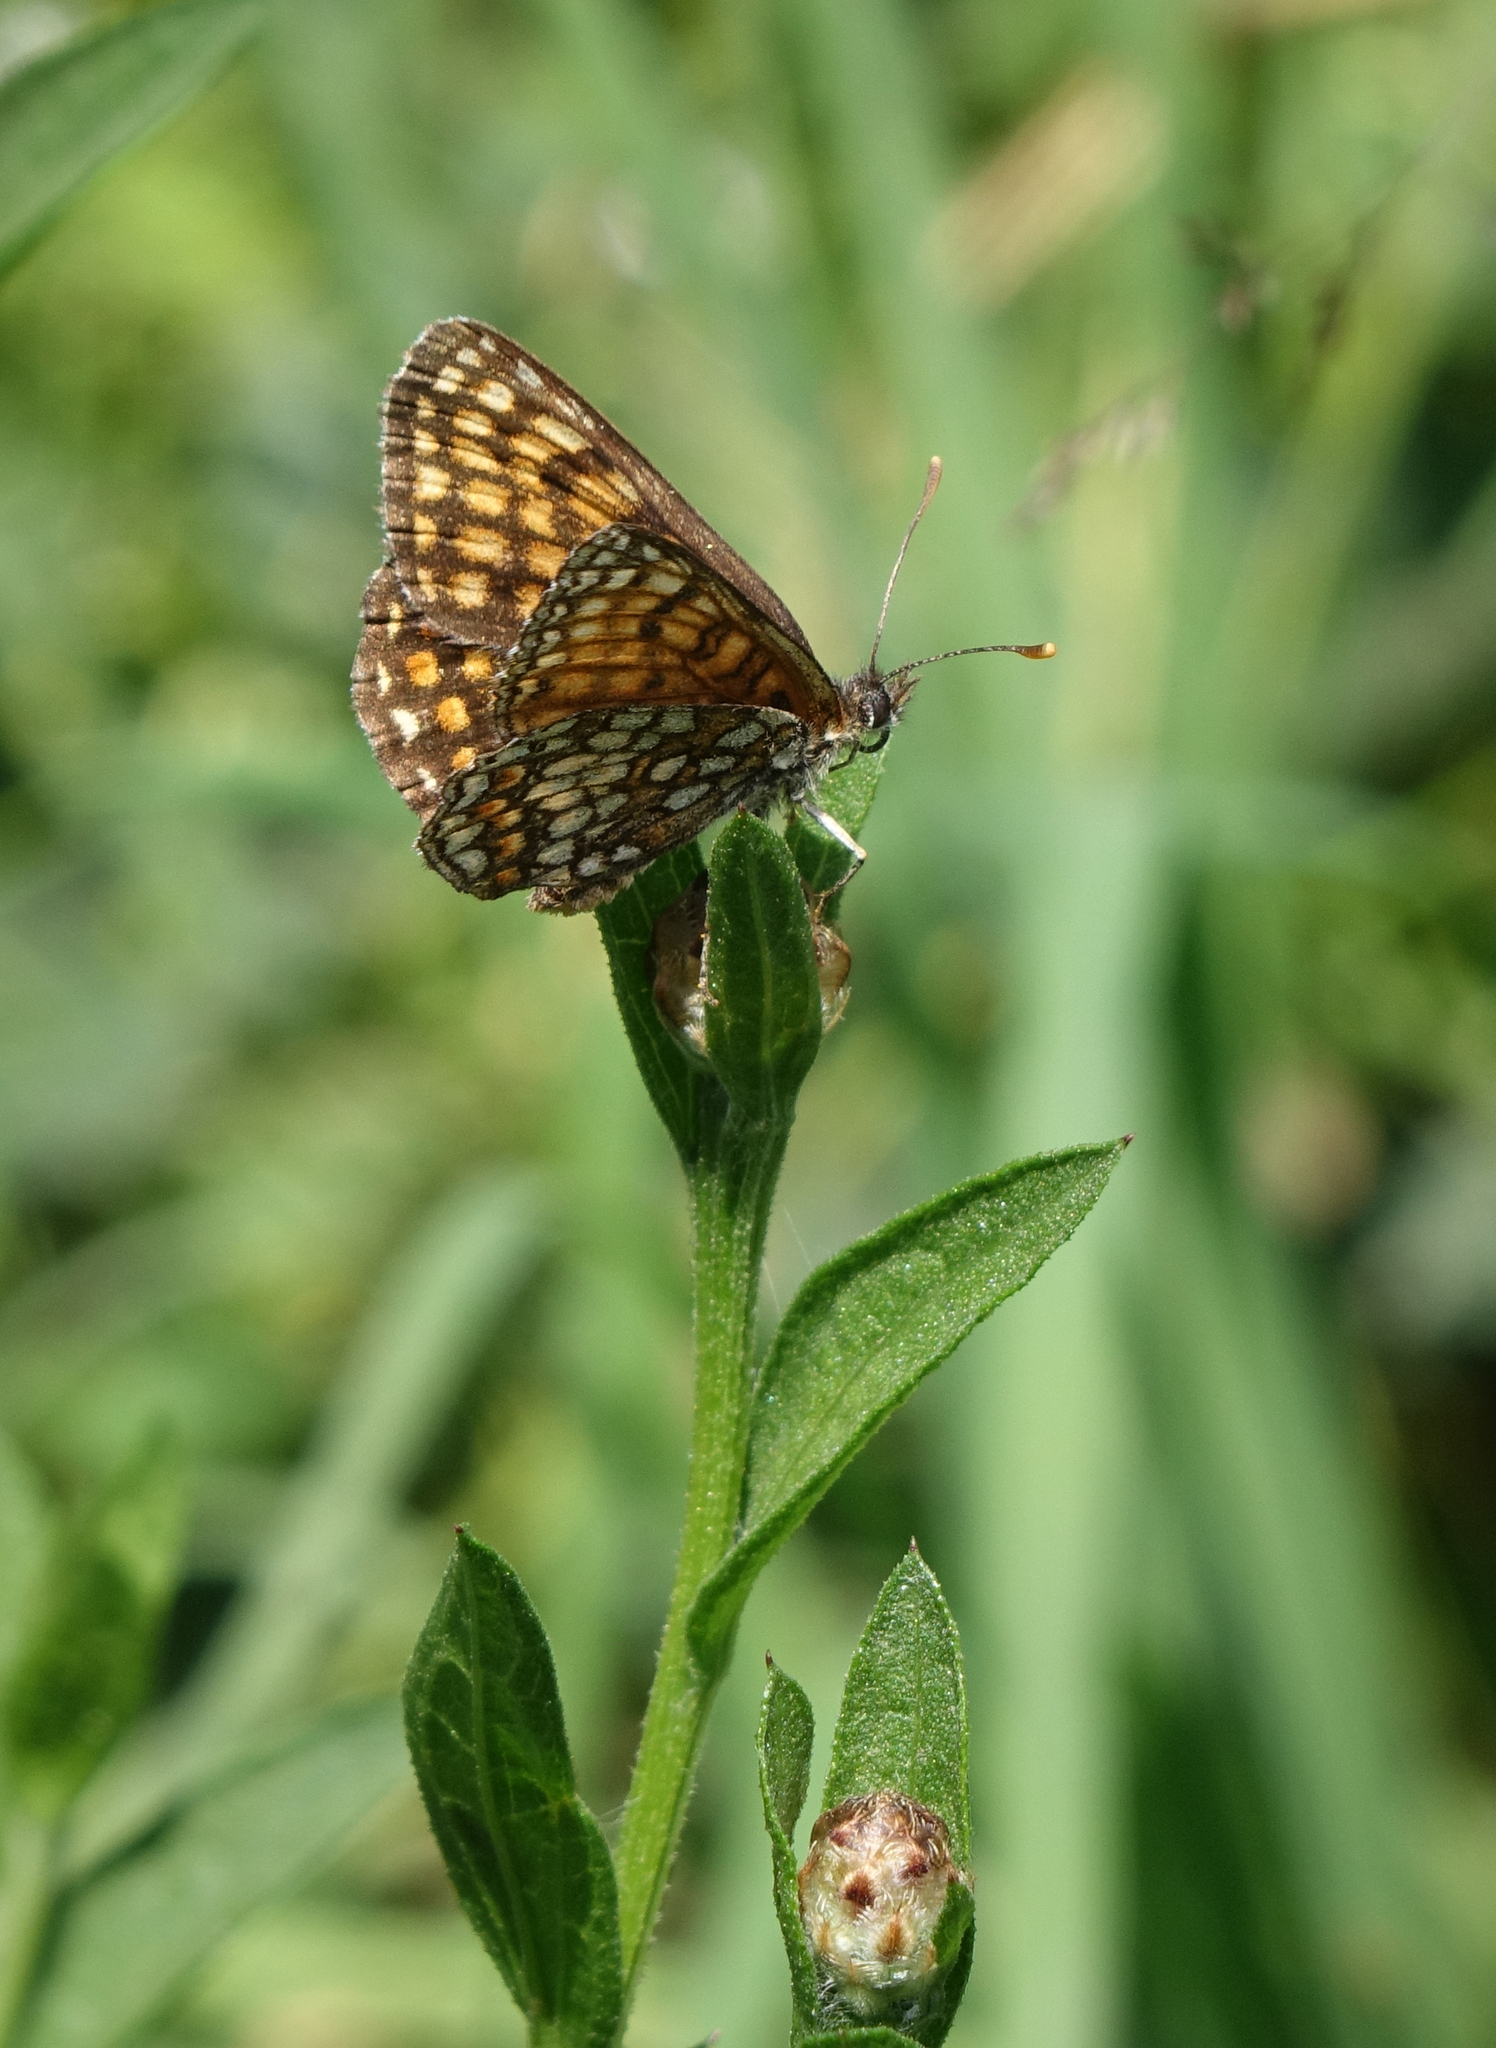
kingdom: Animalia
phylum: Arthropoda
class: Insecta
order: Lepidoptera
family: Nymphalidae
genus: Melitaea
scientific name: Melitaea
